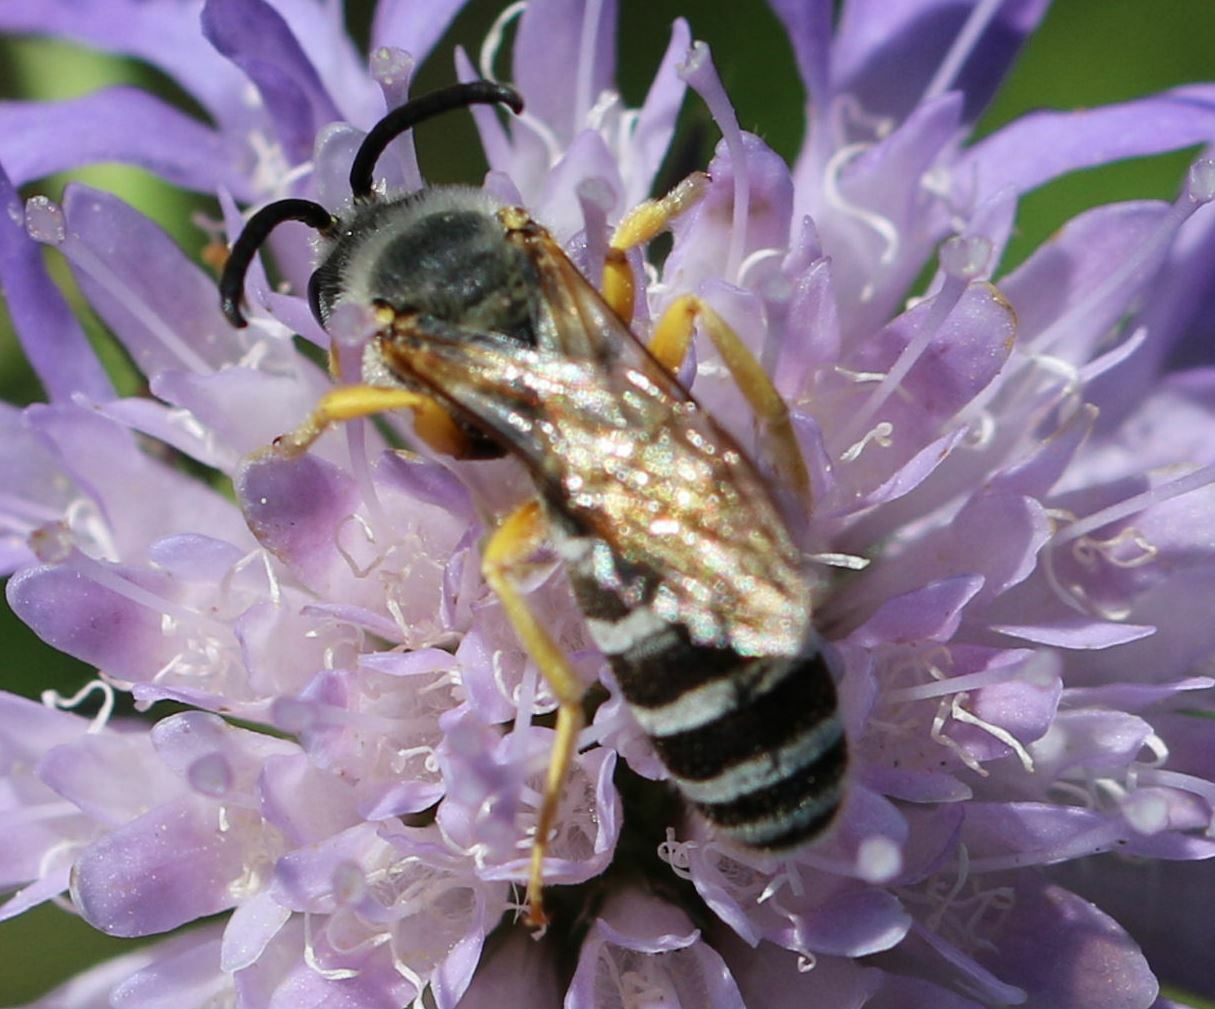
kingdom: Animalia
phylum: Arthropoda
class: Insecta
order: Hymenoptera
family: Halictidae
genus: Halictus
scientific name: Halictus scabiosae
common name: Great banded furrow bee
